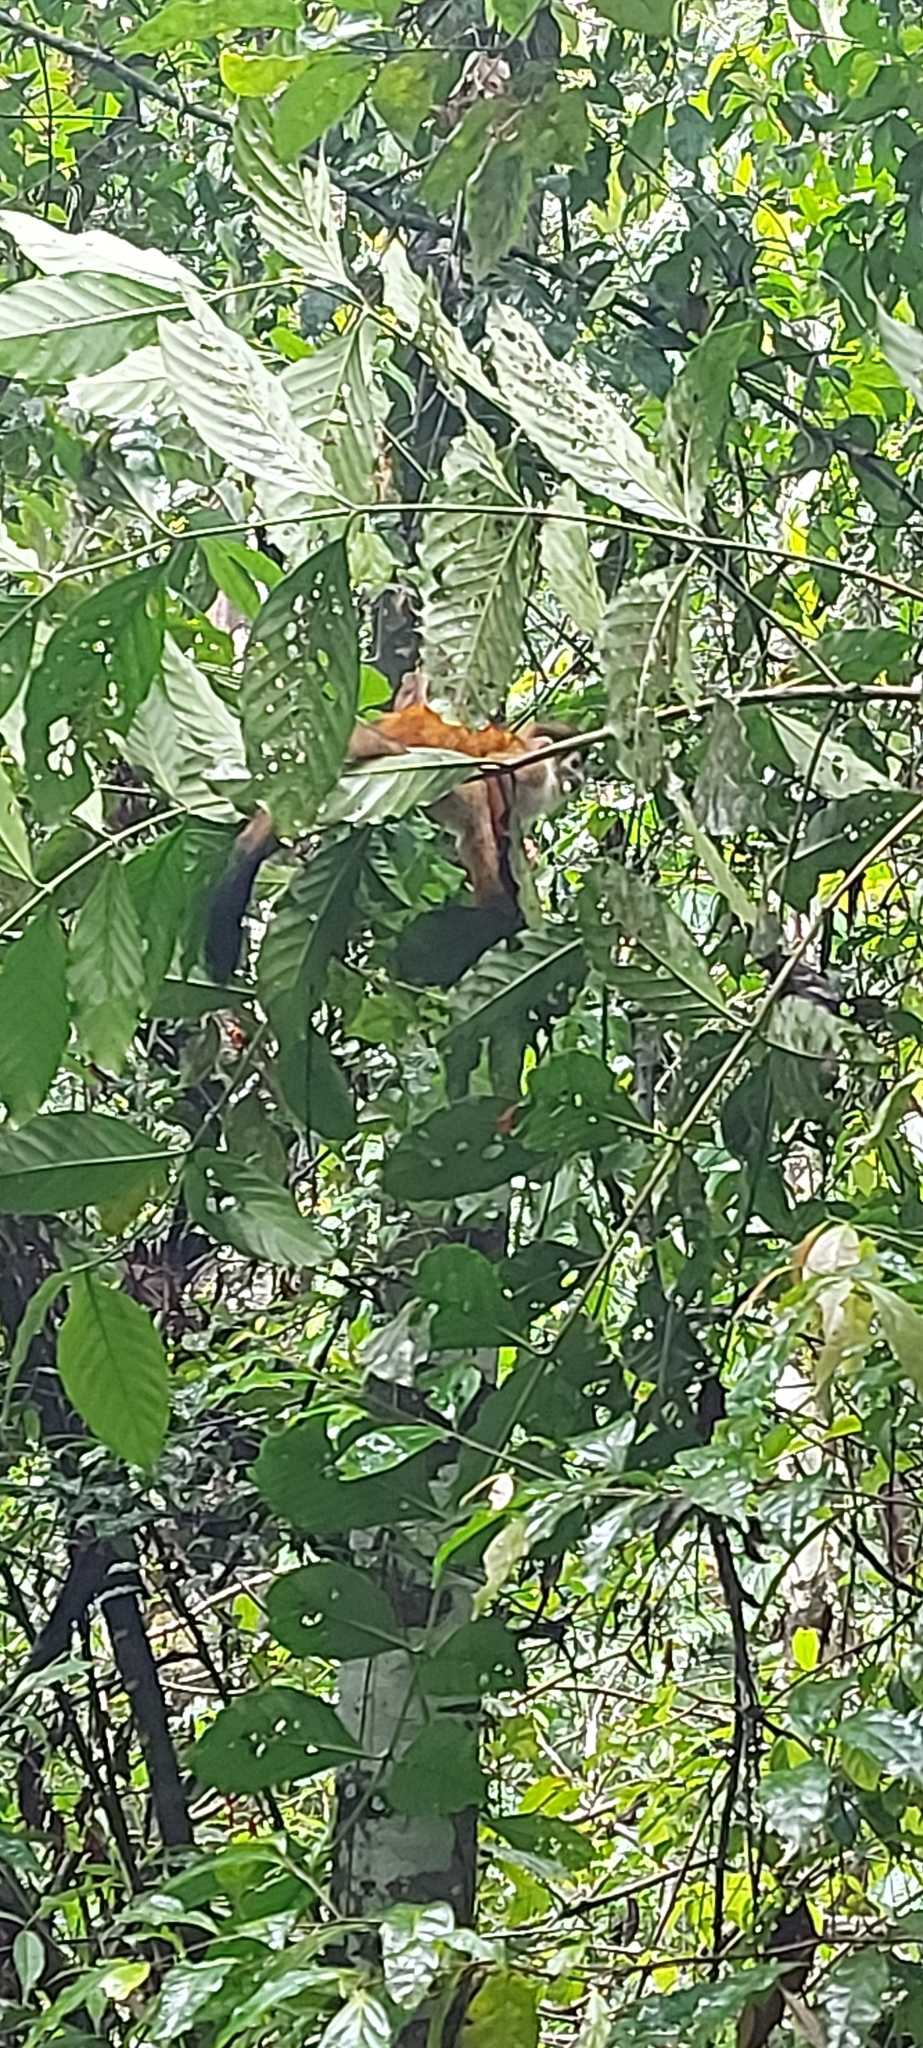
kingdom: Animalia
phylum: Chordata
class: Mammalia
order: Primates
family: Cebidae
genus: Saimiri
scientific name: Saimiri oerstedii
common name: Central american squirrel monkey
